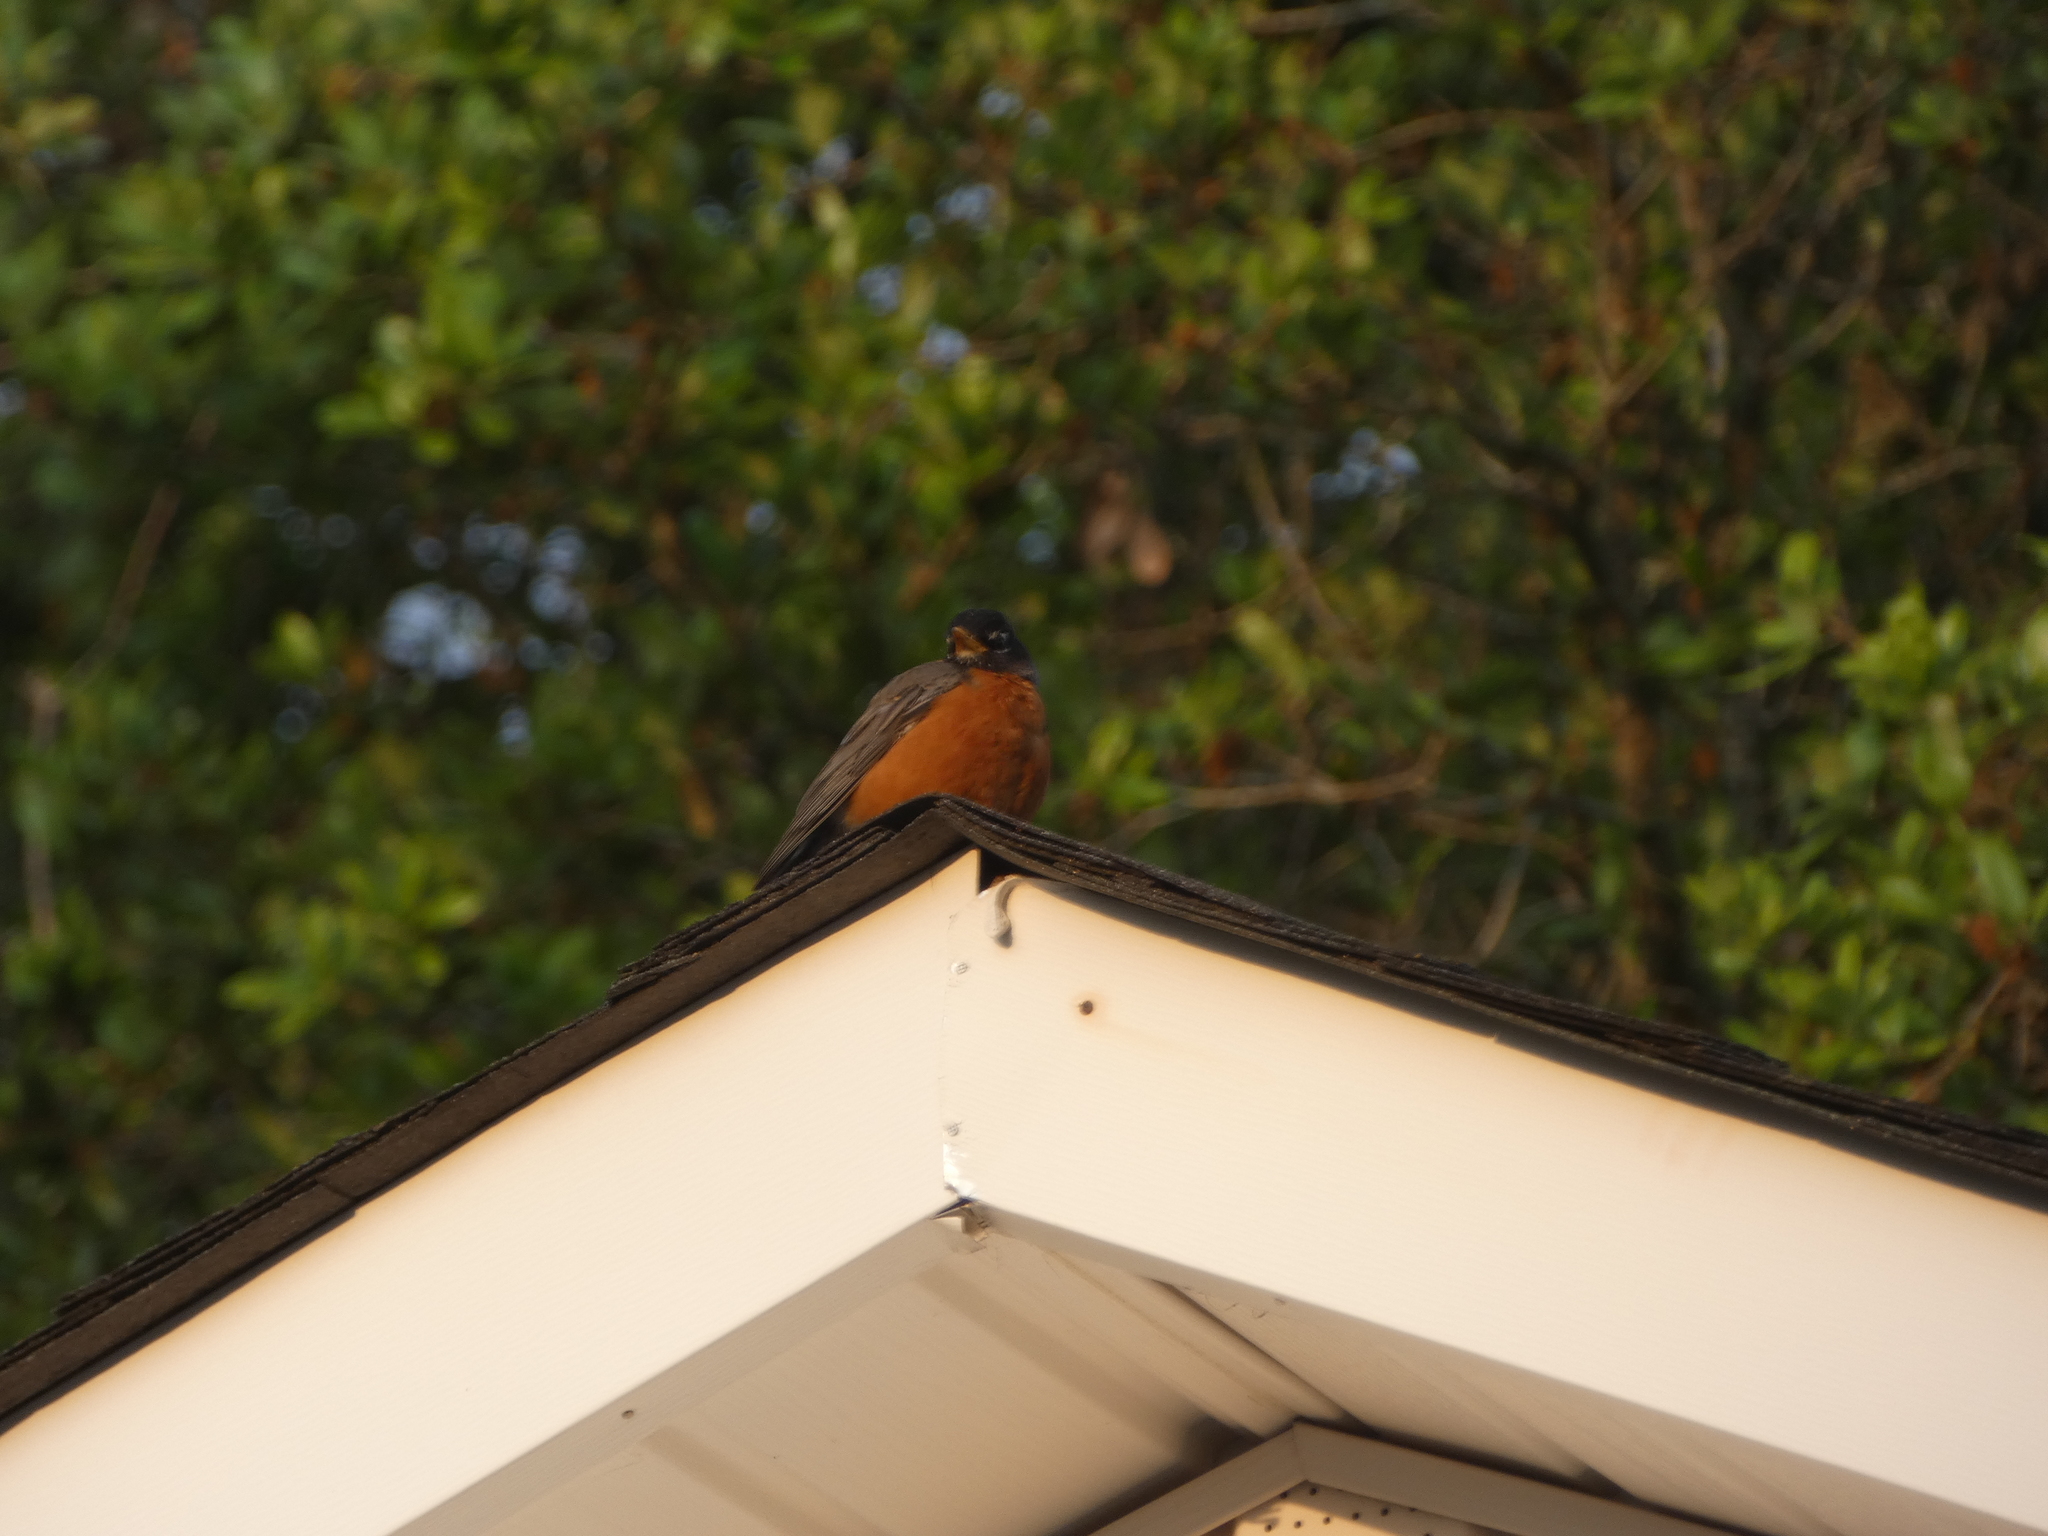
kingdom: Animalia
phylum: Chordata
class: Aves
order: Passeriformes
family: Turdidae
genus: Turdus
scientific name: Turdus migratorius
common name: American robin
